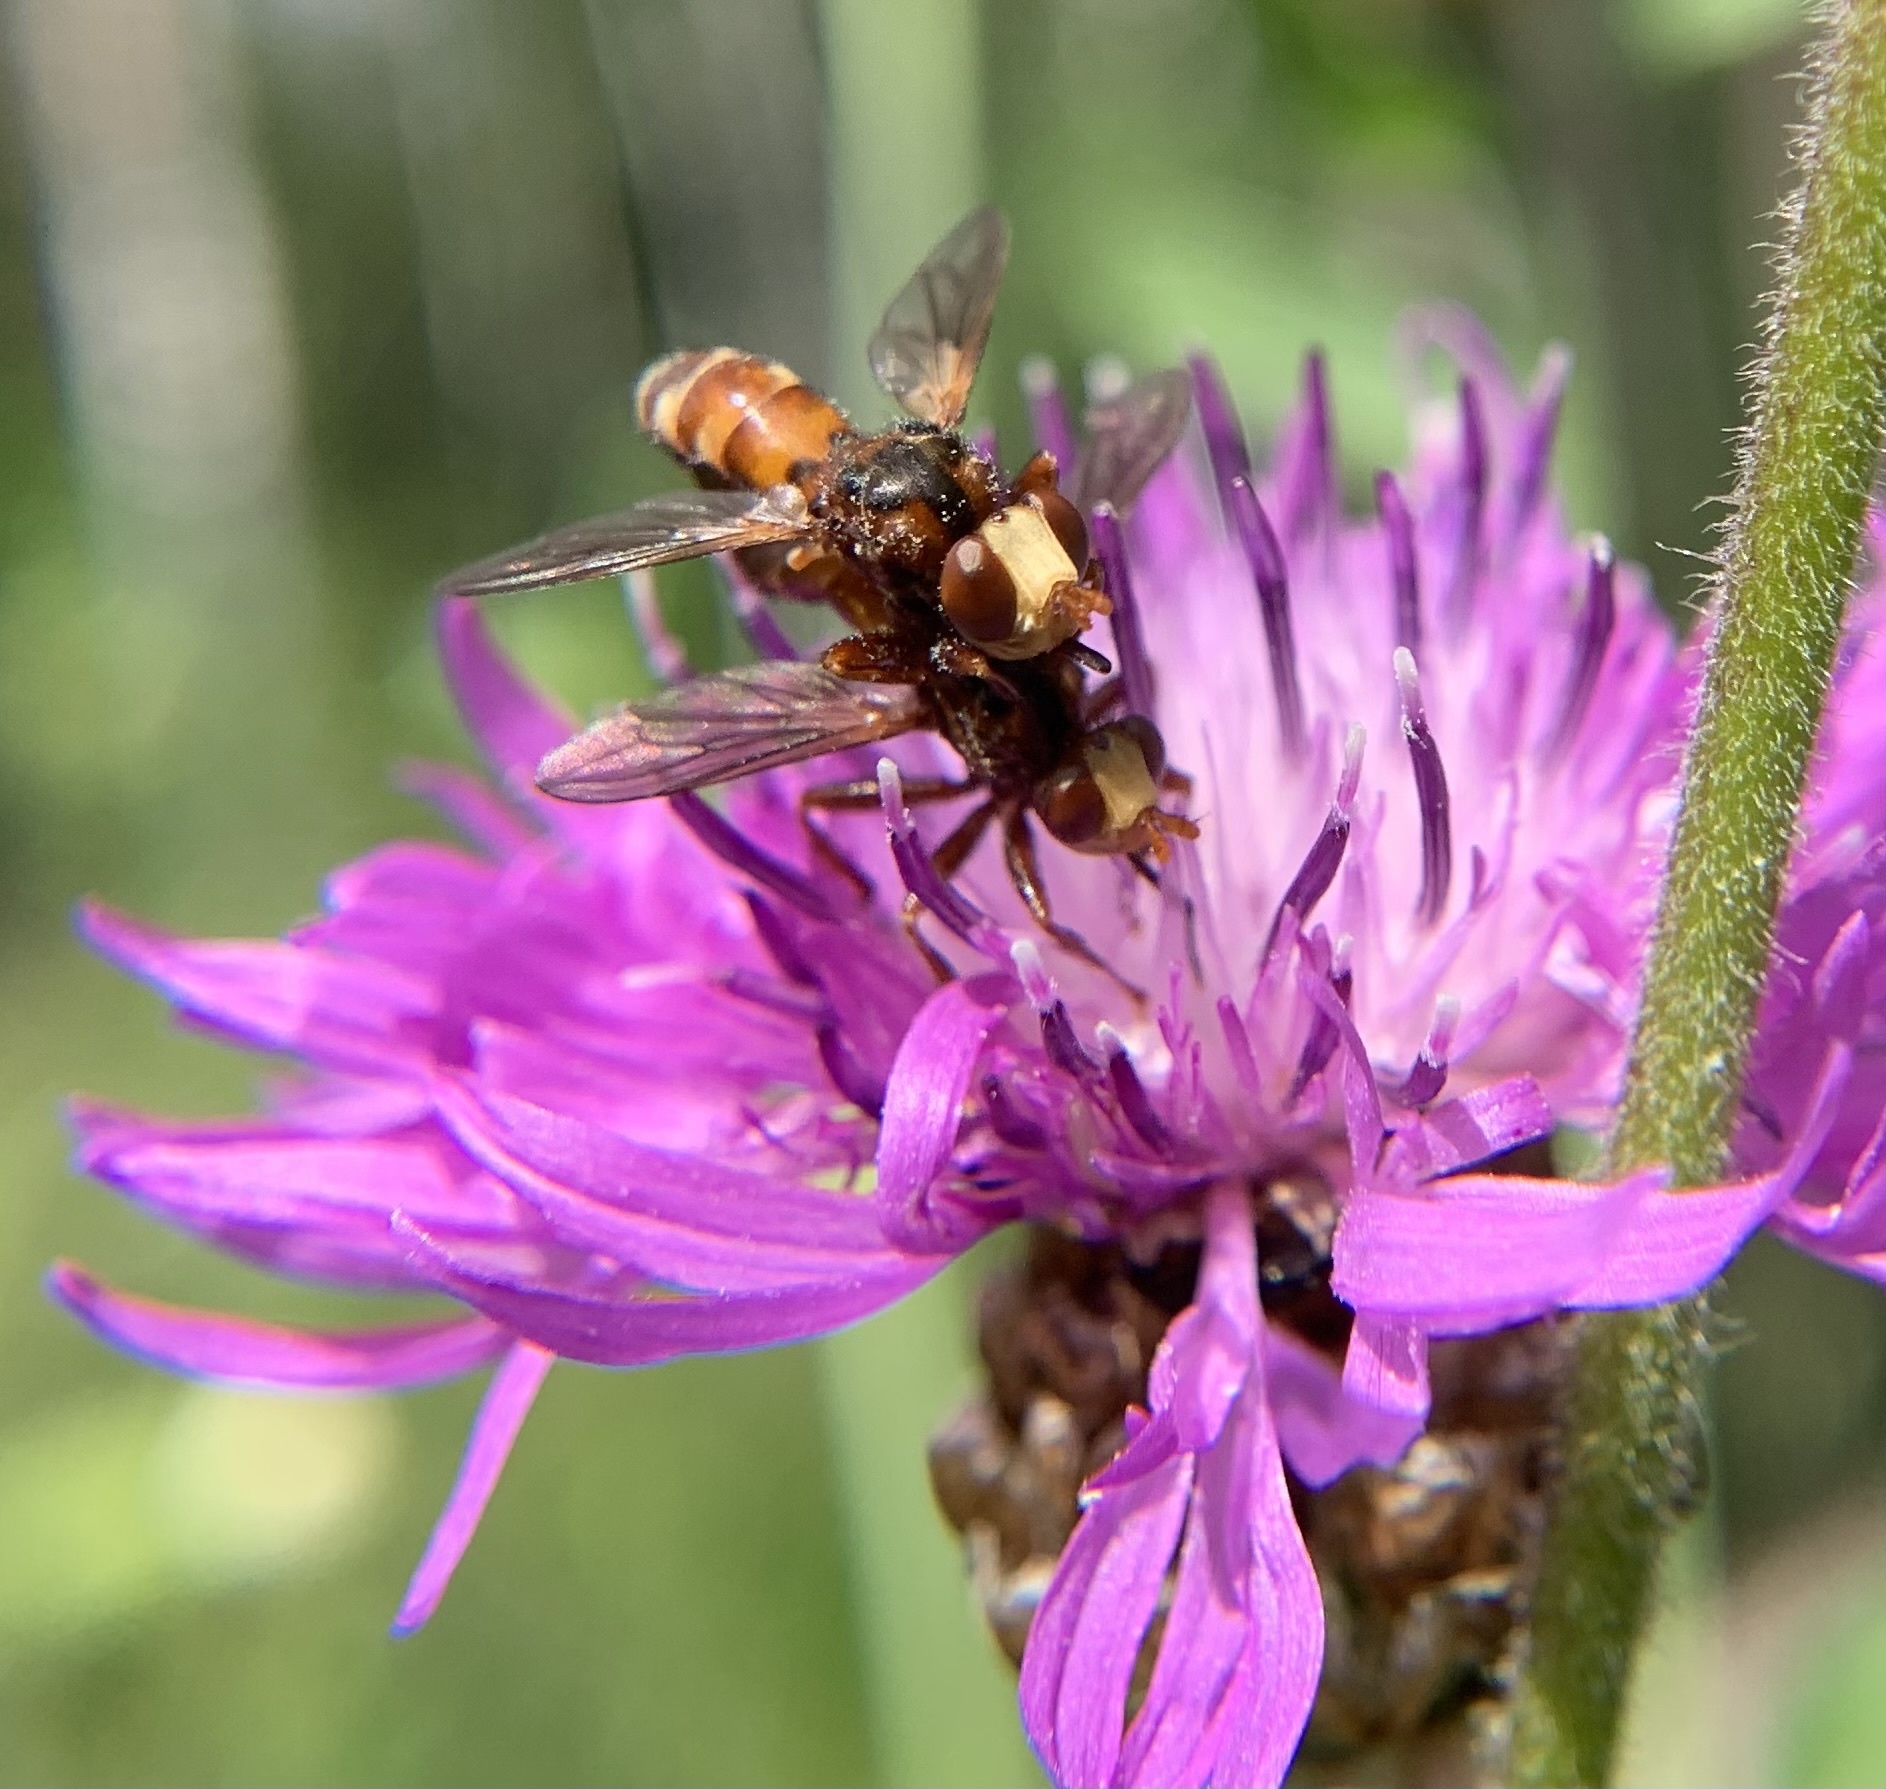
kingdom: Animalia
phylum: Arthropoda
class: Insecta
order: Diptera
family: Conopidae
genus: Sicus
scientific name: Sicus ferrugineus
